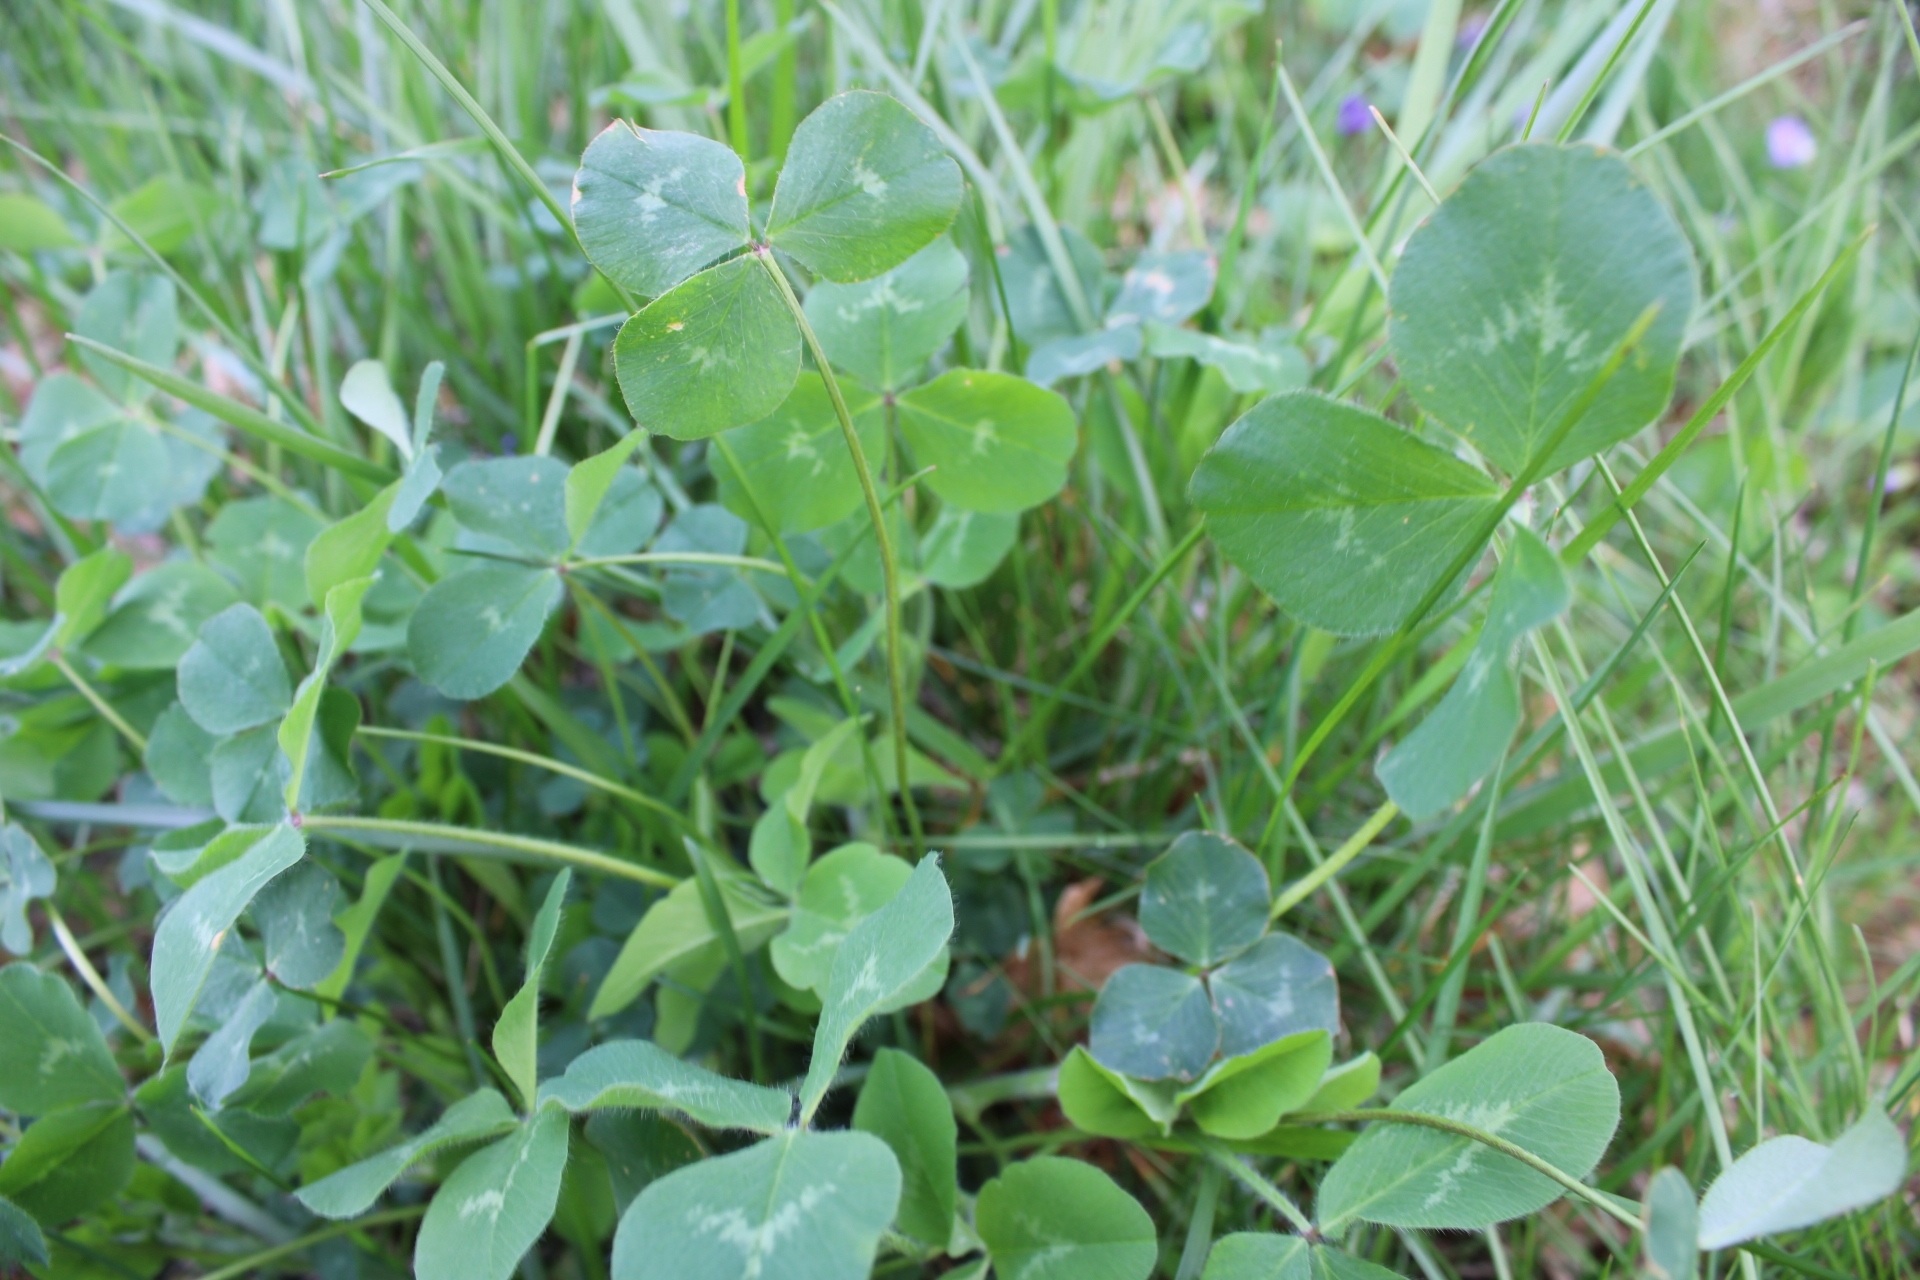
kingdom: Plantae
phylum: Tracheophyta
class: Magnoliopsida
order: Fabales
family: Fabaceae
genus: Trifolium
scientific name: Trifolium repens
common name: White clover
